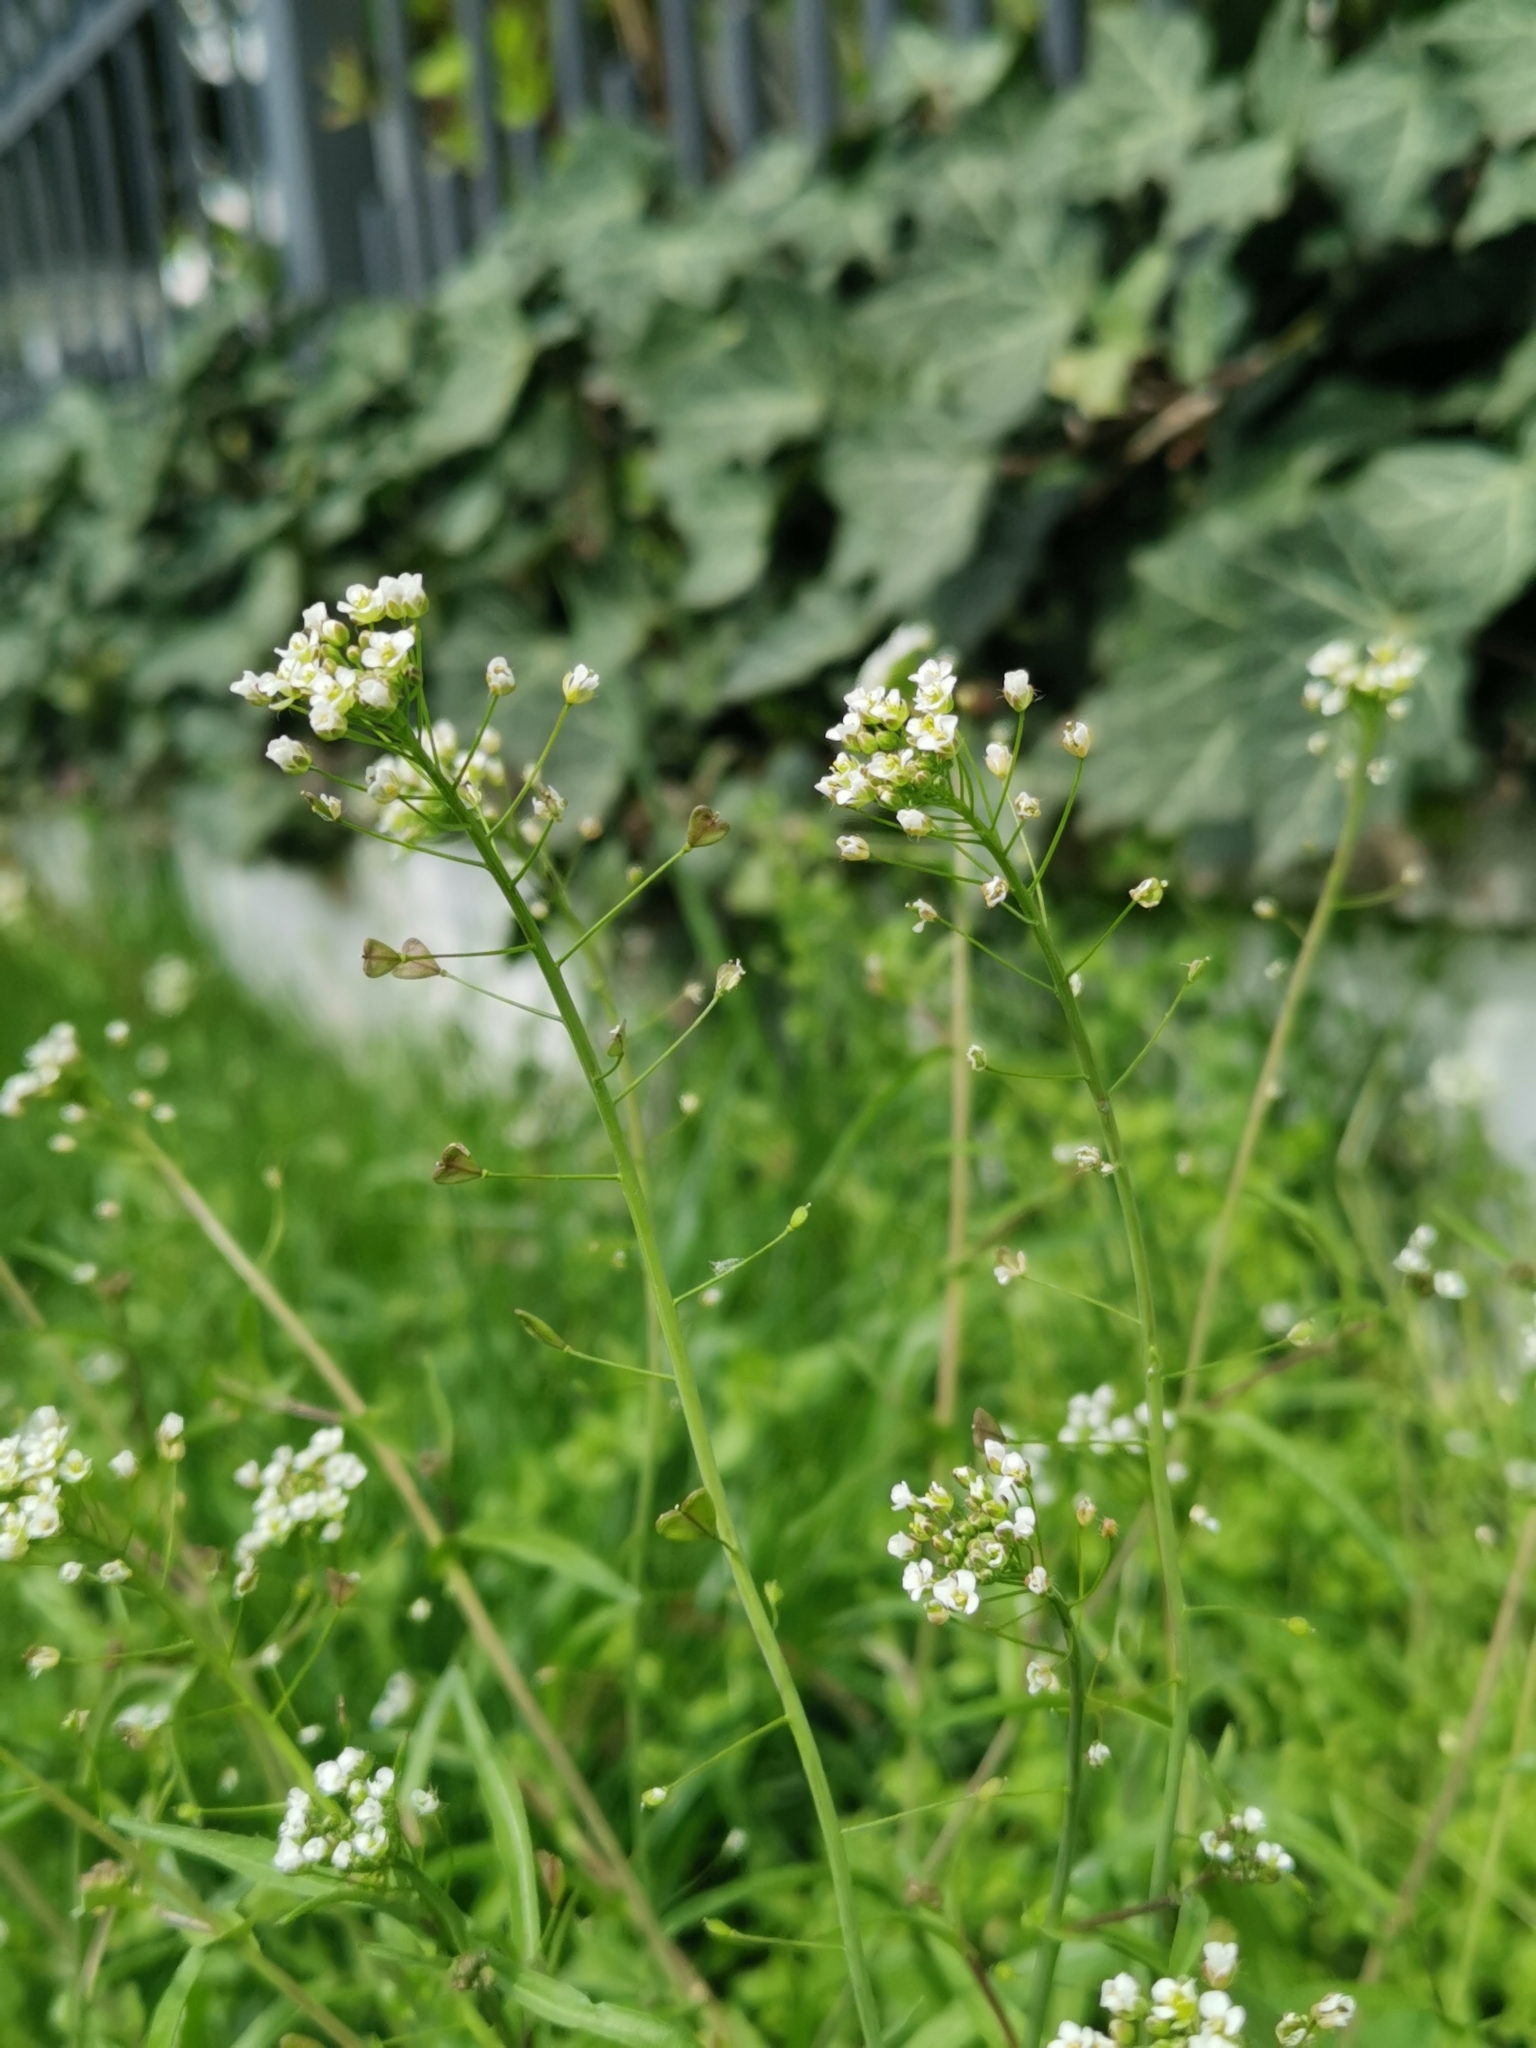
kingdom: Plantae
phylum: Tracheophyta
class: Magnoliopsida
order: Brassicales
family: Brassicaceae
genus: Capsella
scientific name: Capsella bursa-pastoris
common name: Shepherd's purse
